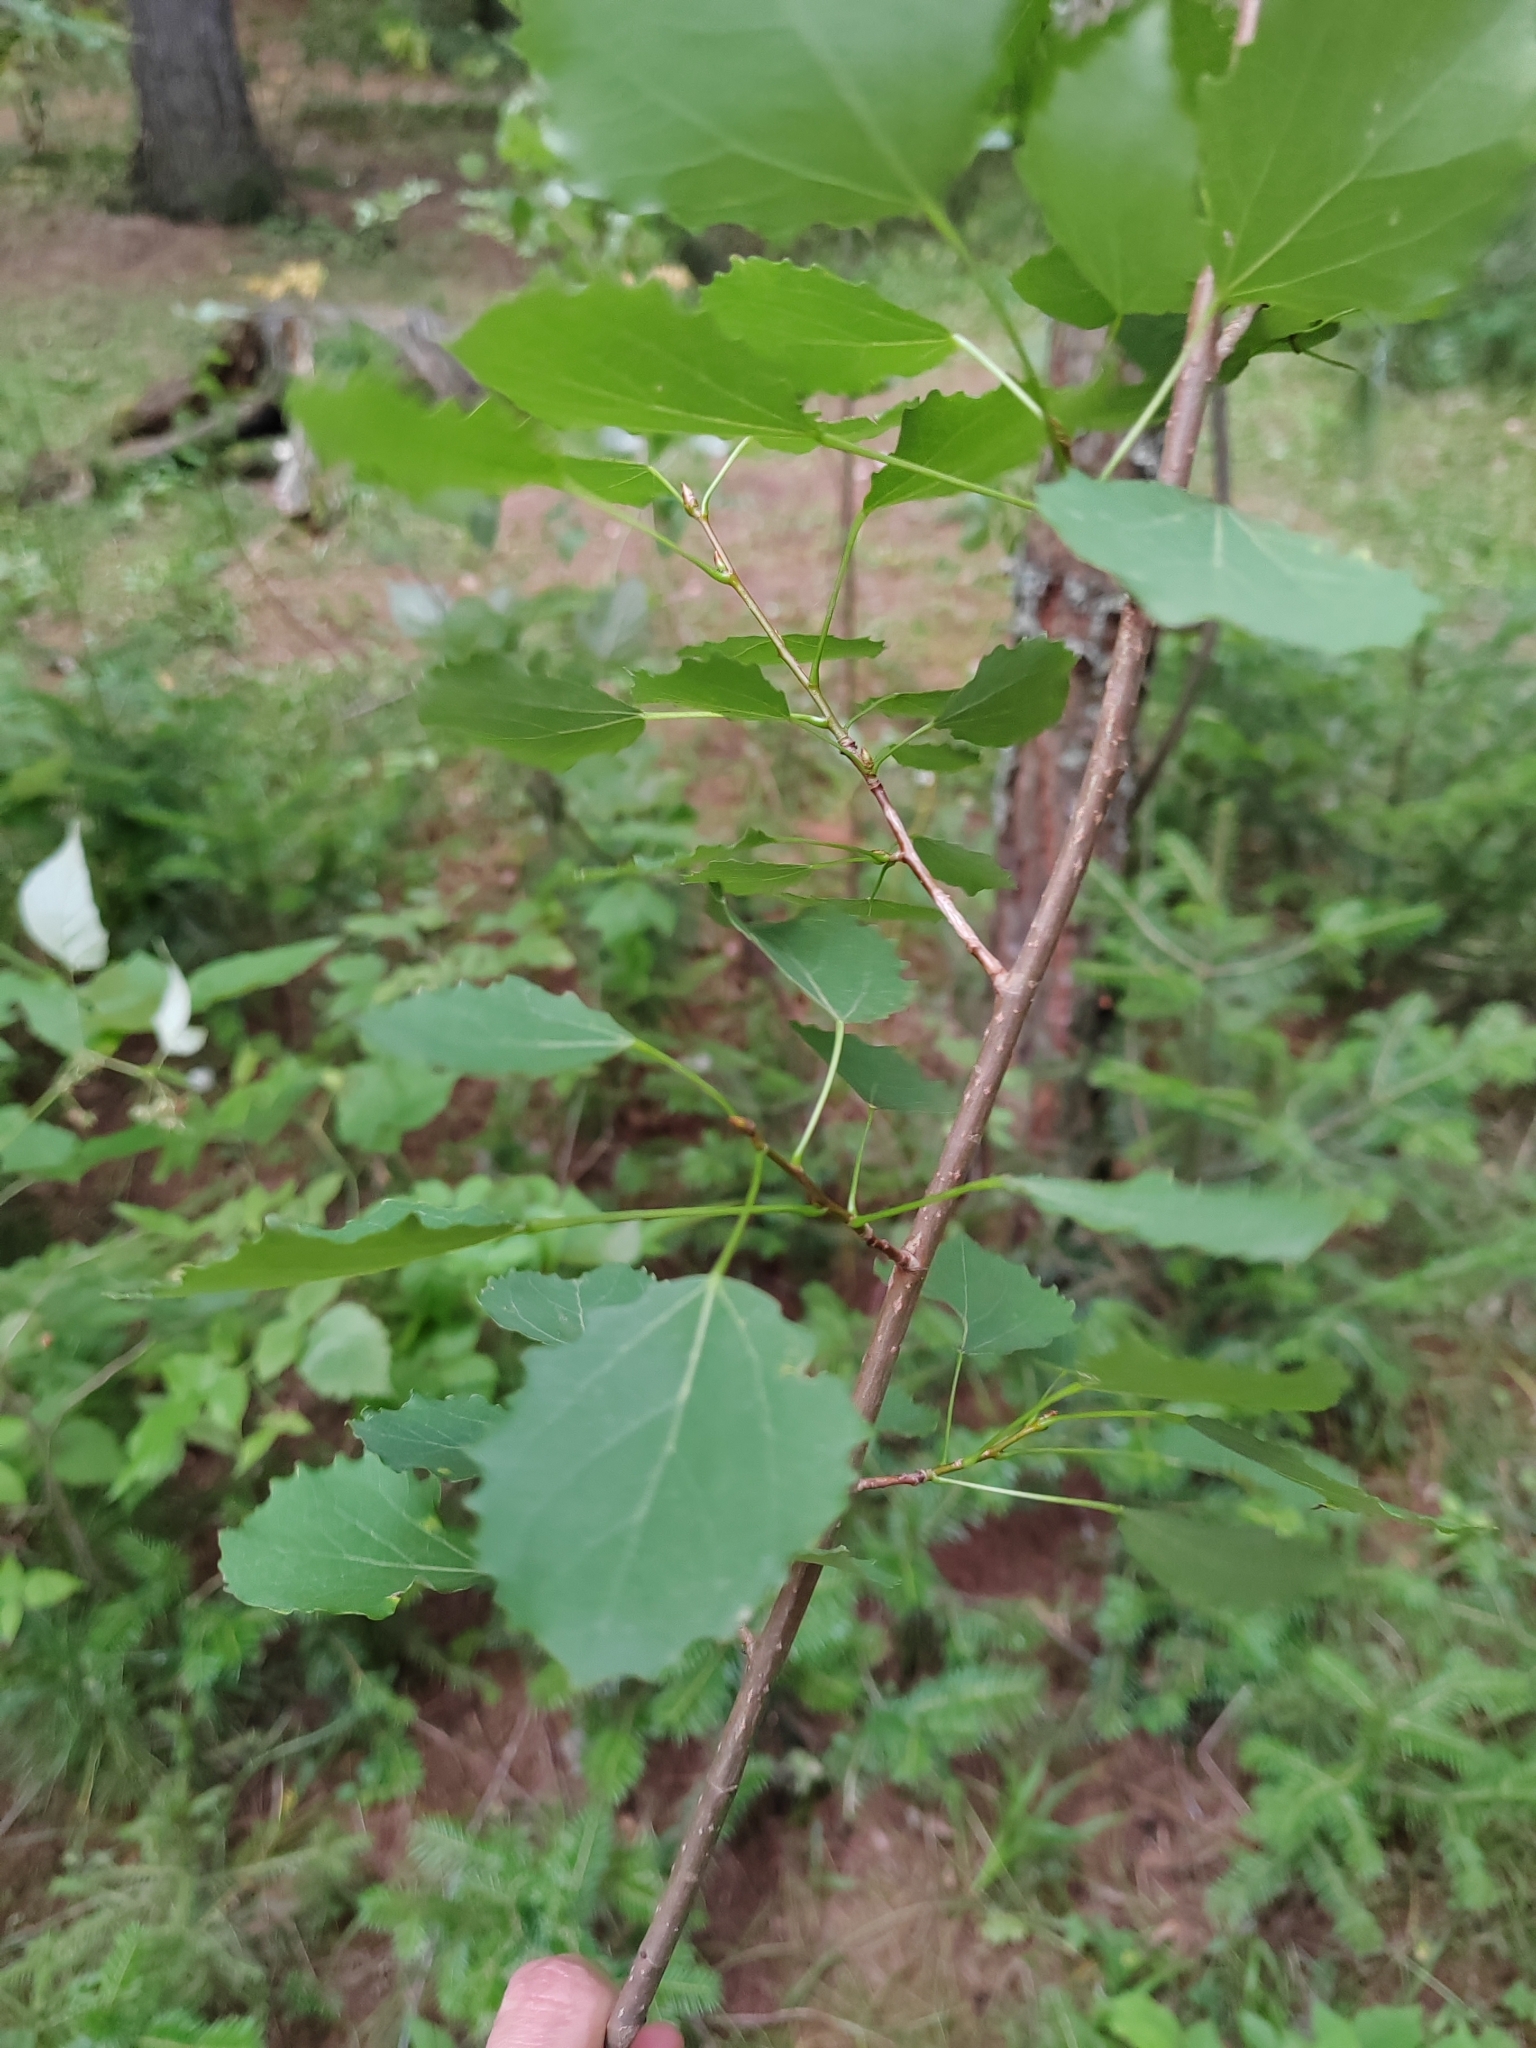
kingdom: Plantae
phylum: Tracheophyta
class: Magnoliopsida
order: Malpighiales
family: Salicaceae
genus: Populus
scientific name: Populus tremula
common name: European aspen
